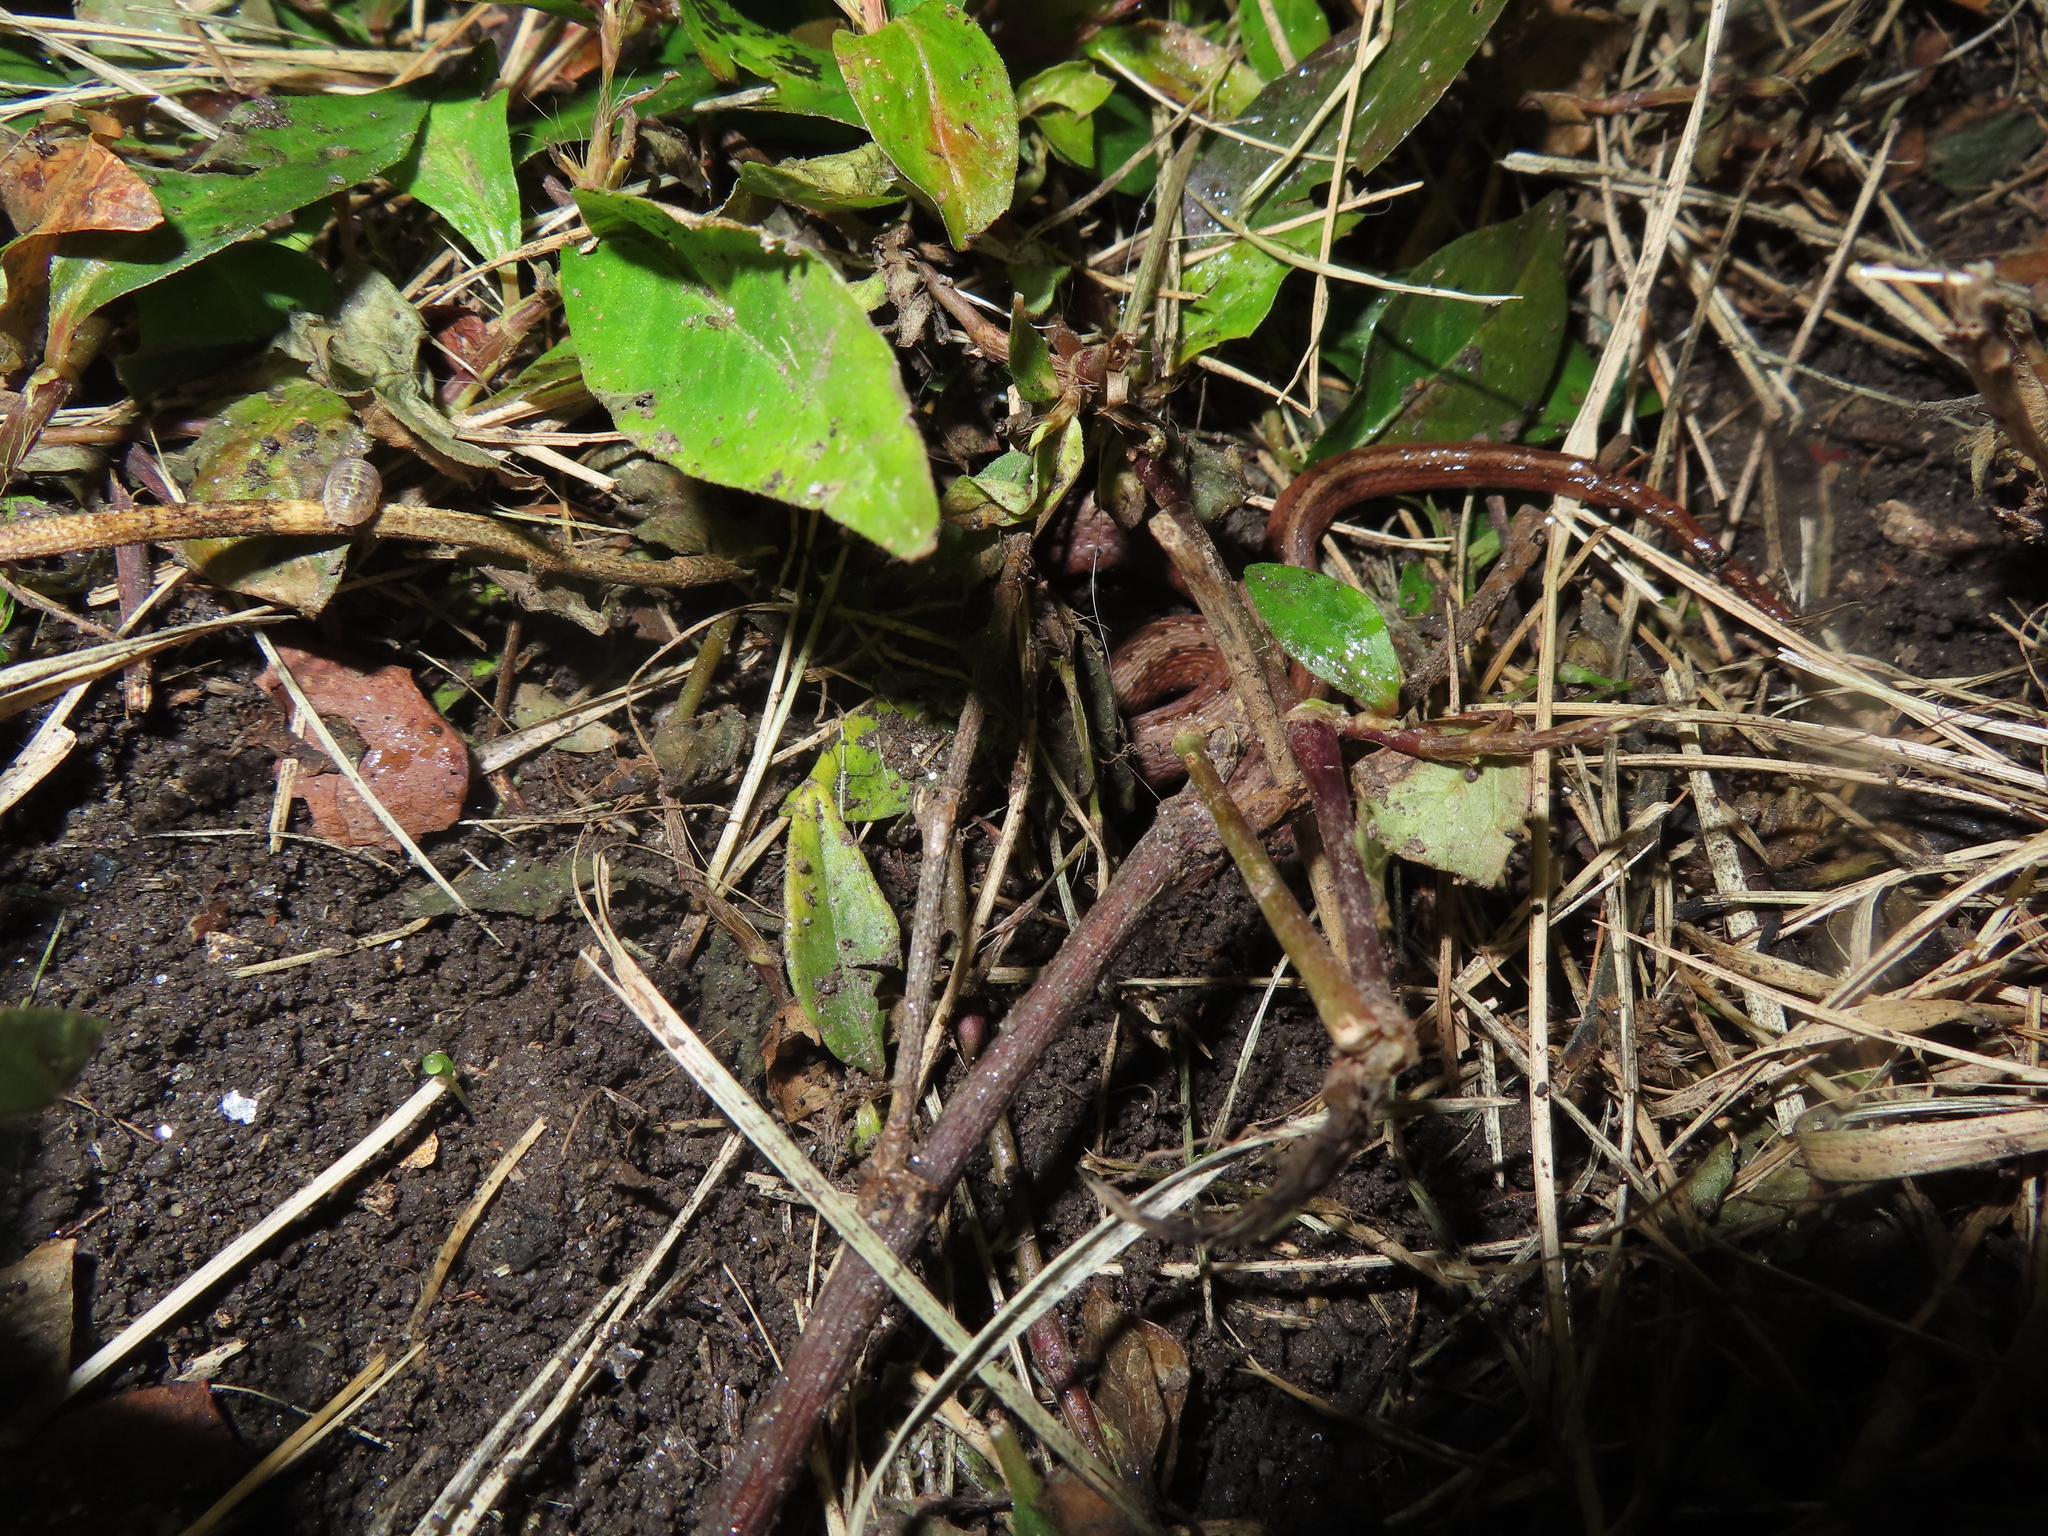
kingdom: Animalia
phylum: Chordata
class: Squamata
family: Colubridae
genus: Storeria
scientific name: Storeria dekayi
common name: (dekay’s) brown snake
